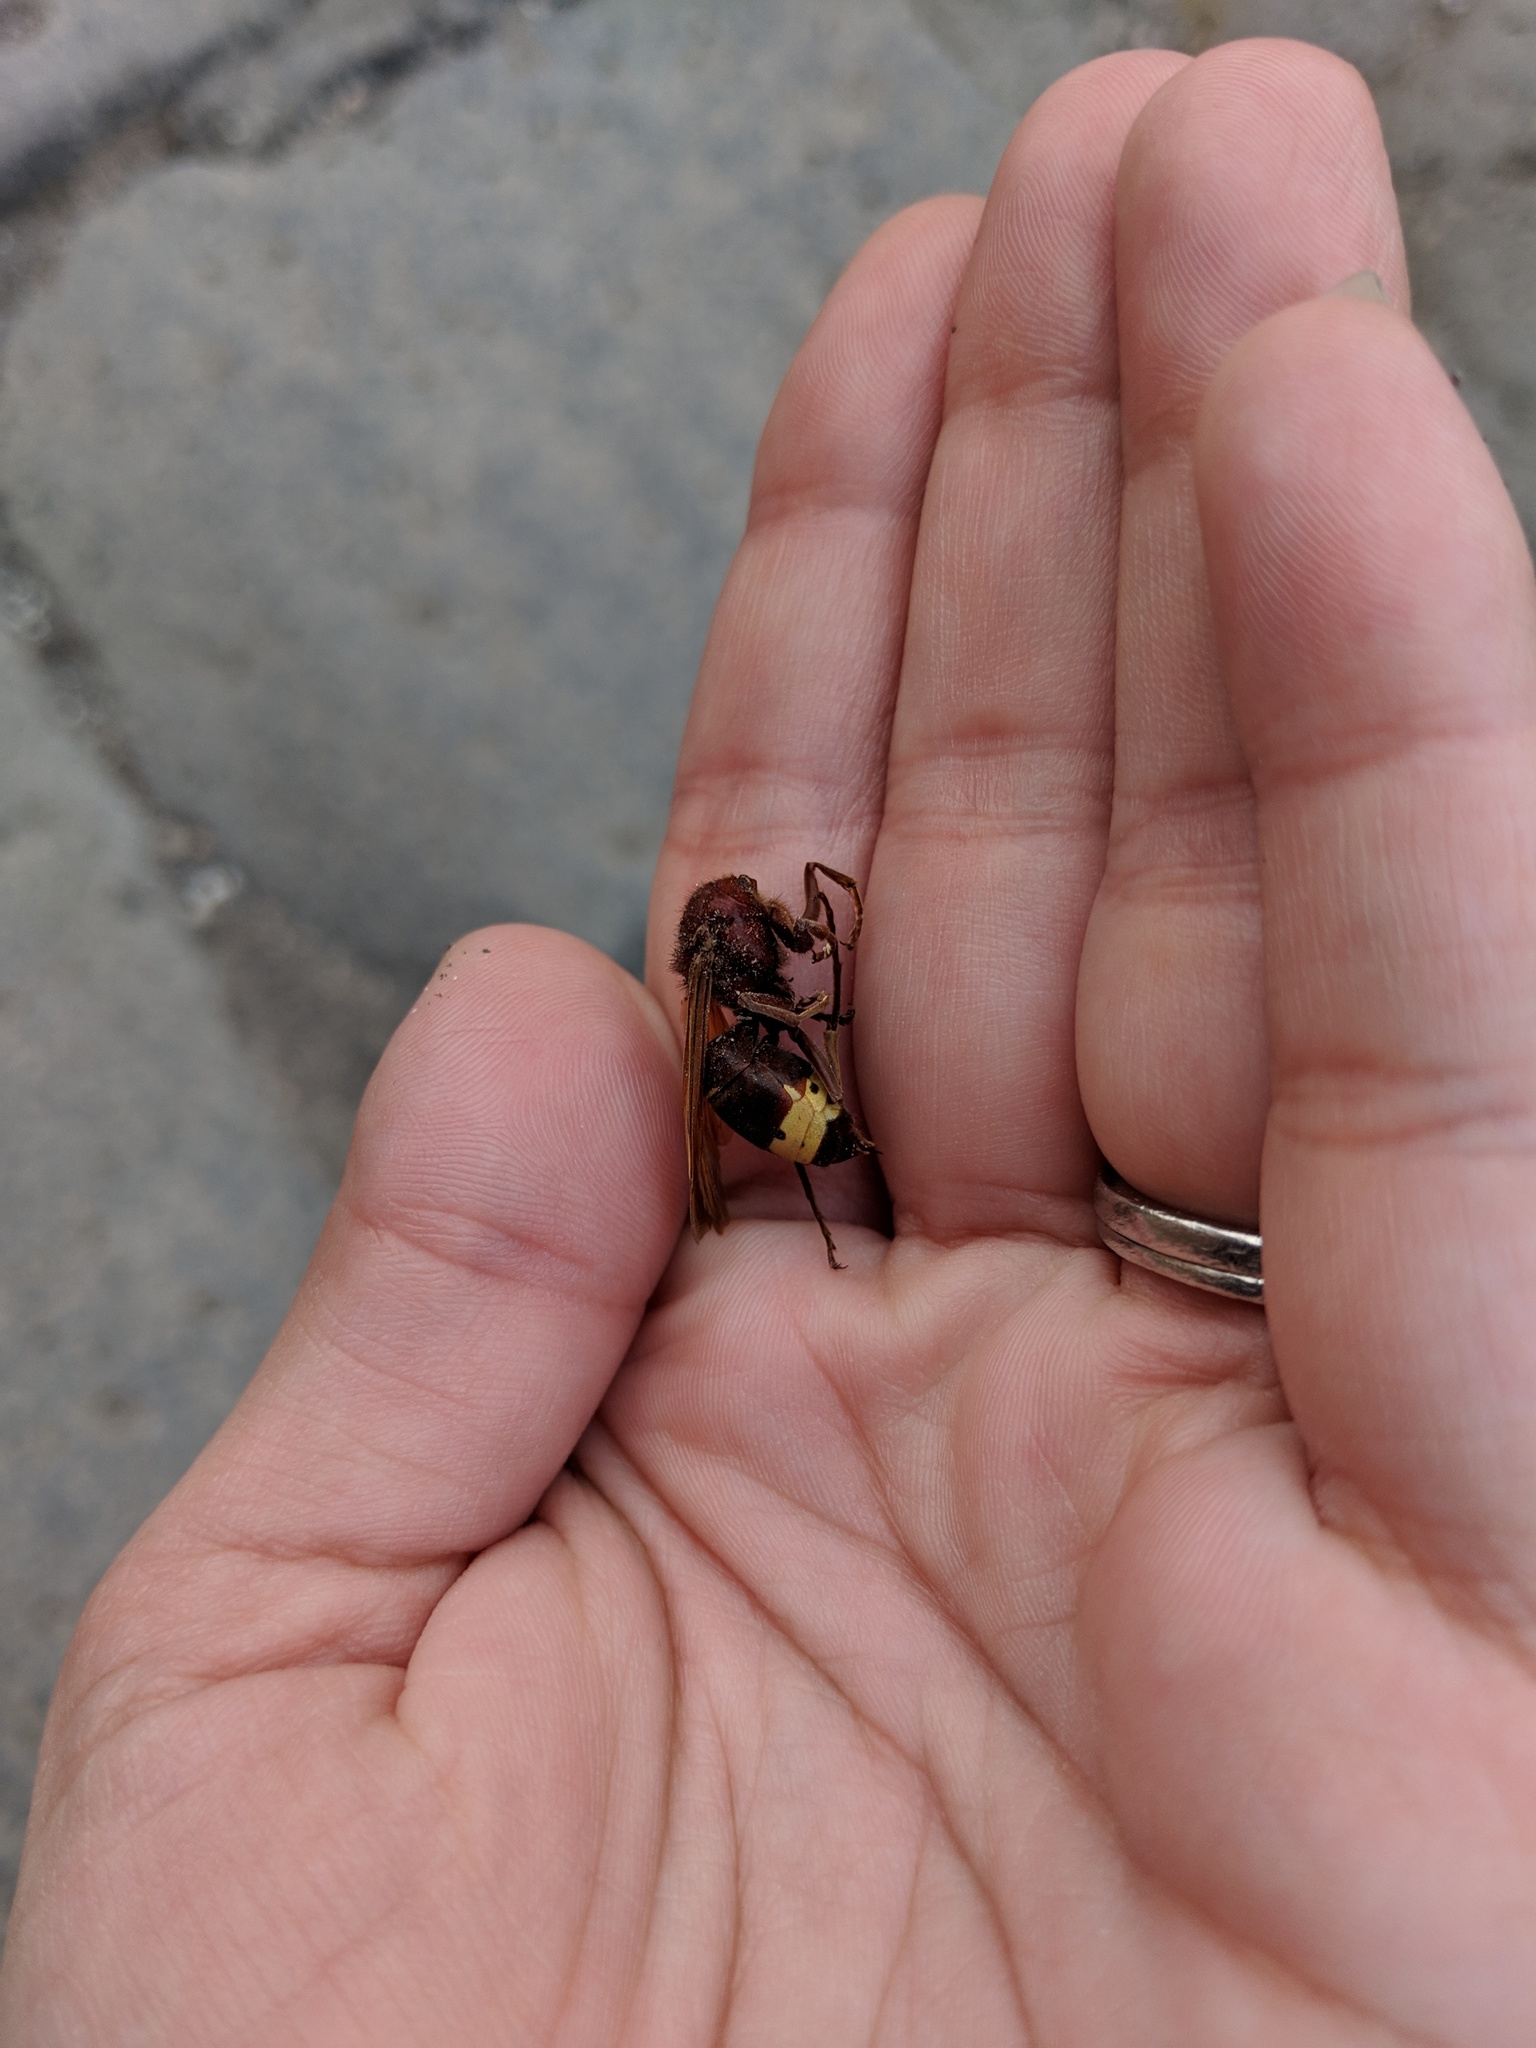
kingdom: Animalia
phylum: Arthropoda
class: Insecta
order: Hymenoptera
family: Vespidae
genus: Vespa
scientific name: Vespa orientalis
